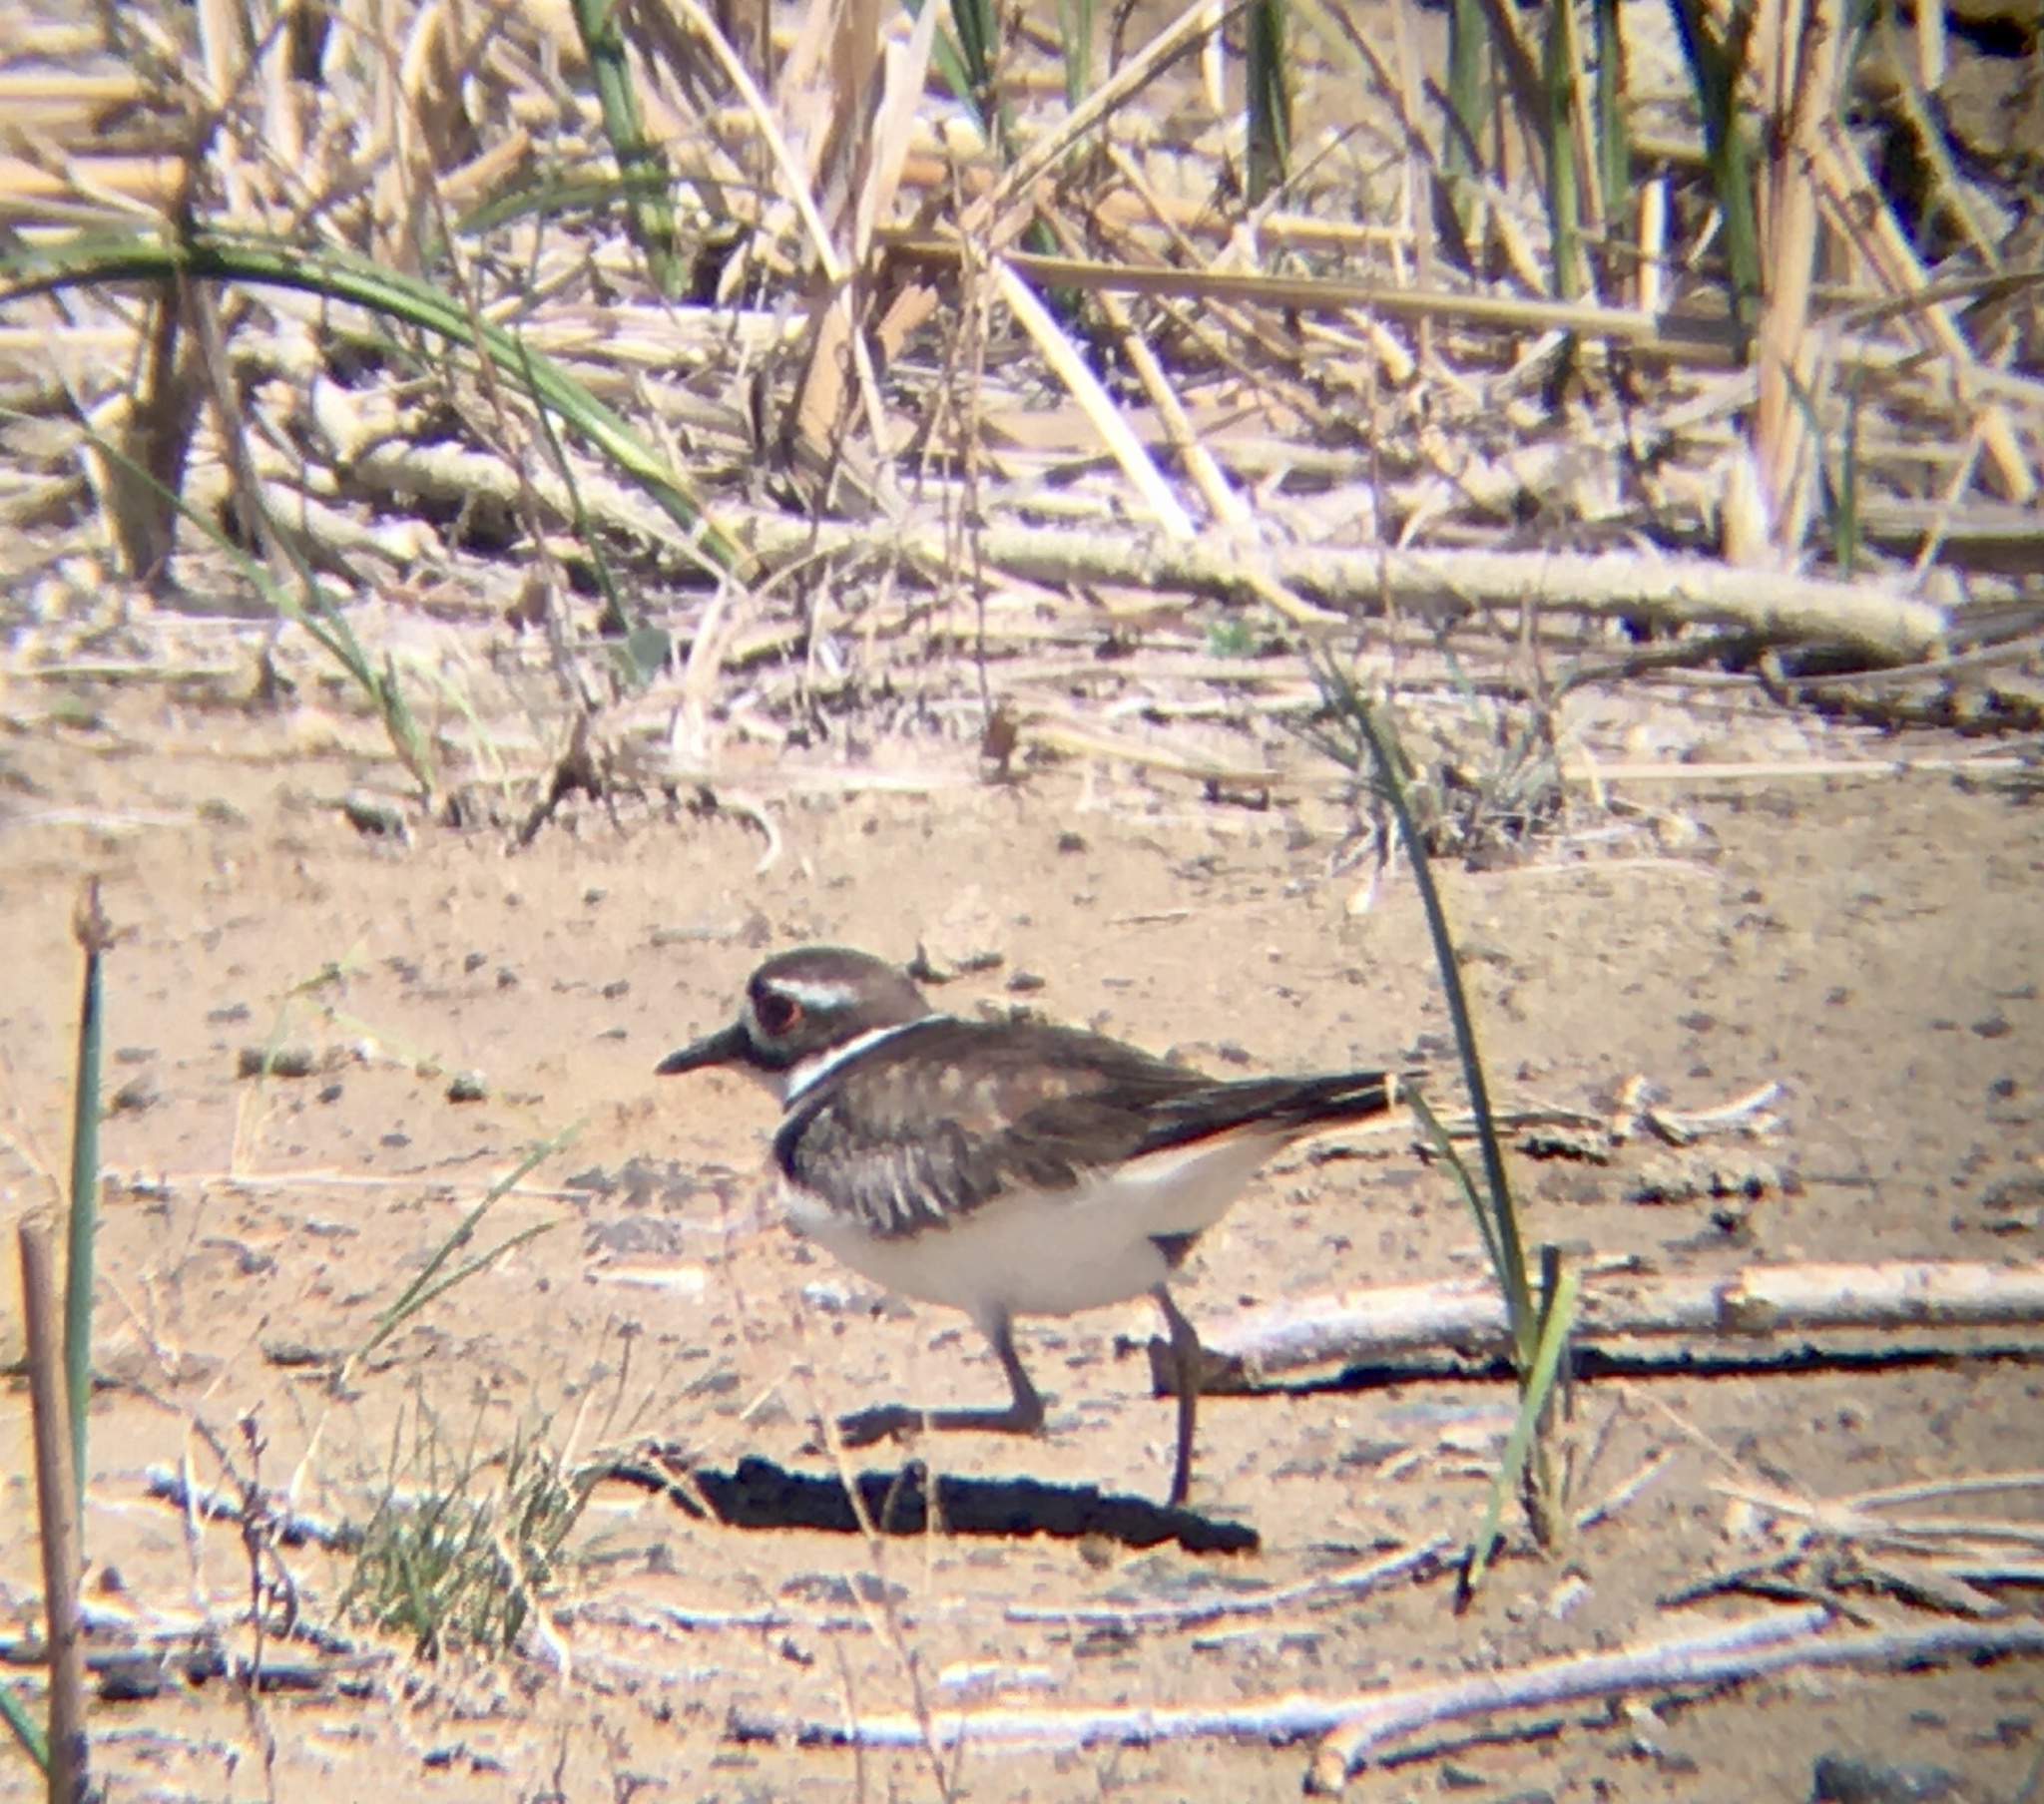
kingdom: Animalia
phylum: Chordata
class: Aves
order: Charadriiformes
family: Charadriidae
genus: Charadrius
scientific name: Charadrius vociferus
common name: Killdeer
